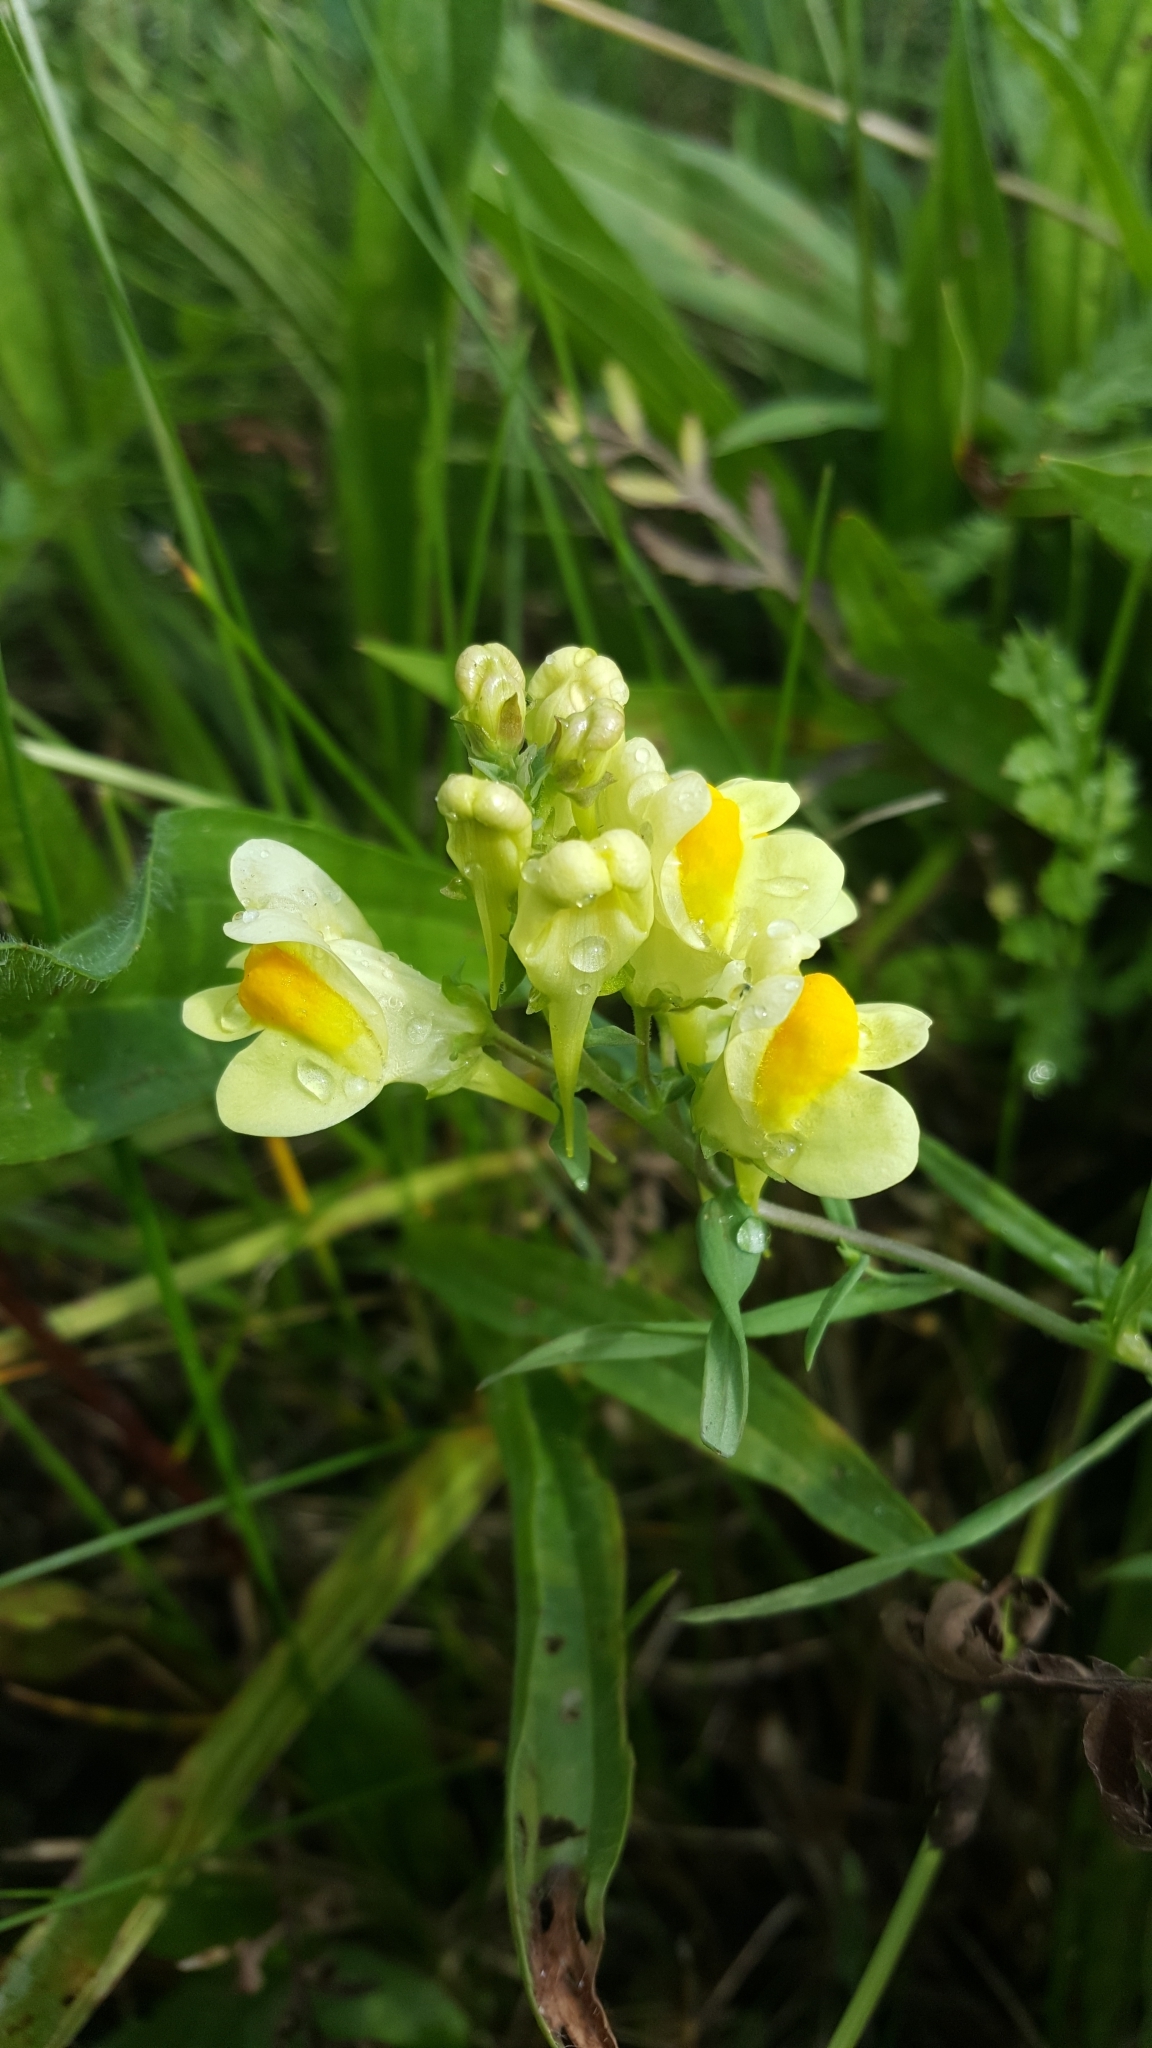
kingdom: Plantae
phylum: Tracheophyta
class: Magnoliopsida
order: Lamiales
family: Plantaginaceae
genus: Linaria
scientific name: Linaria vulgaris
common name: Butter and eggs
